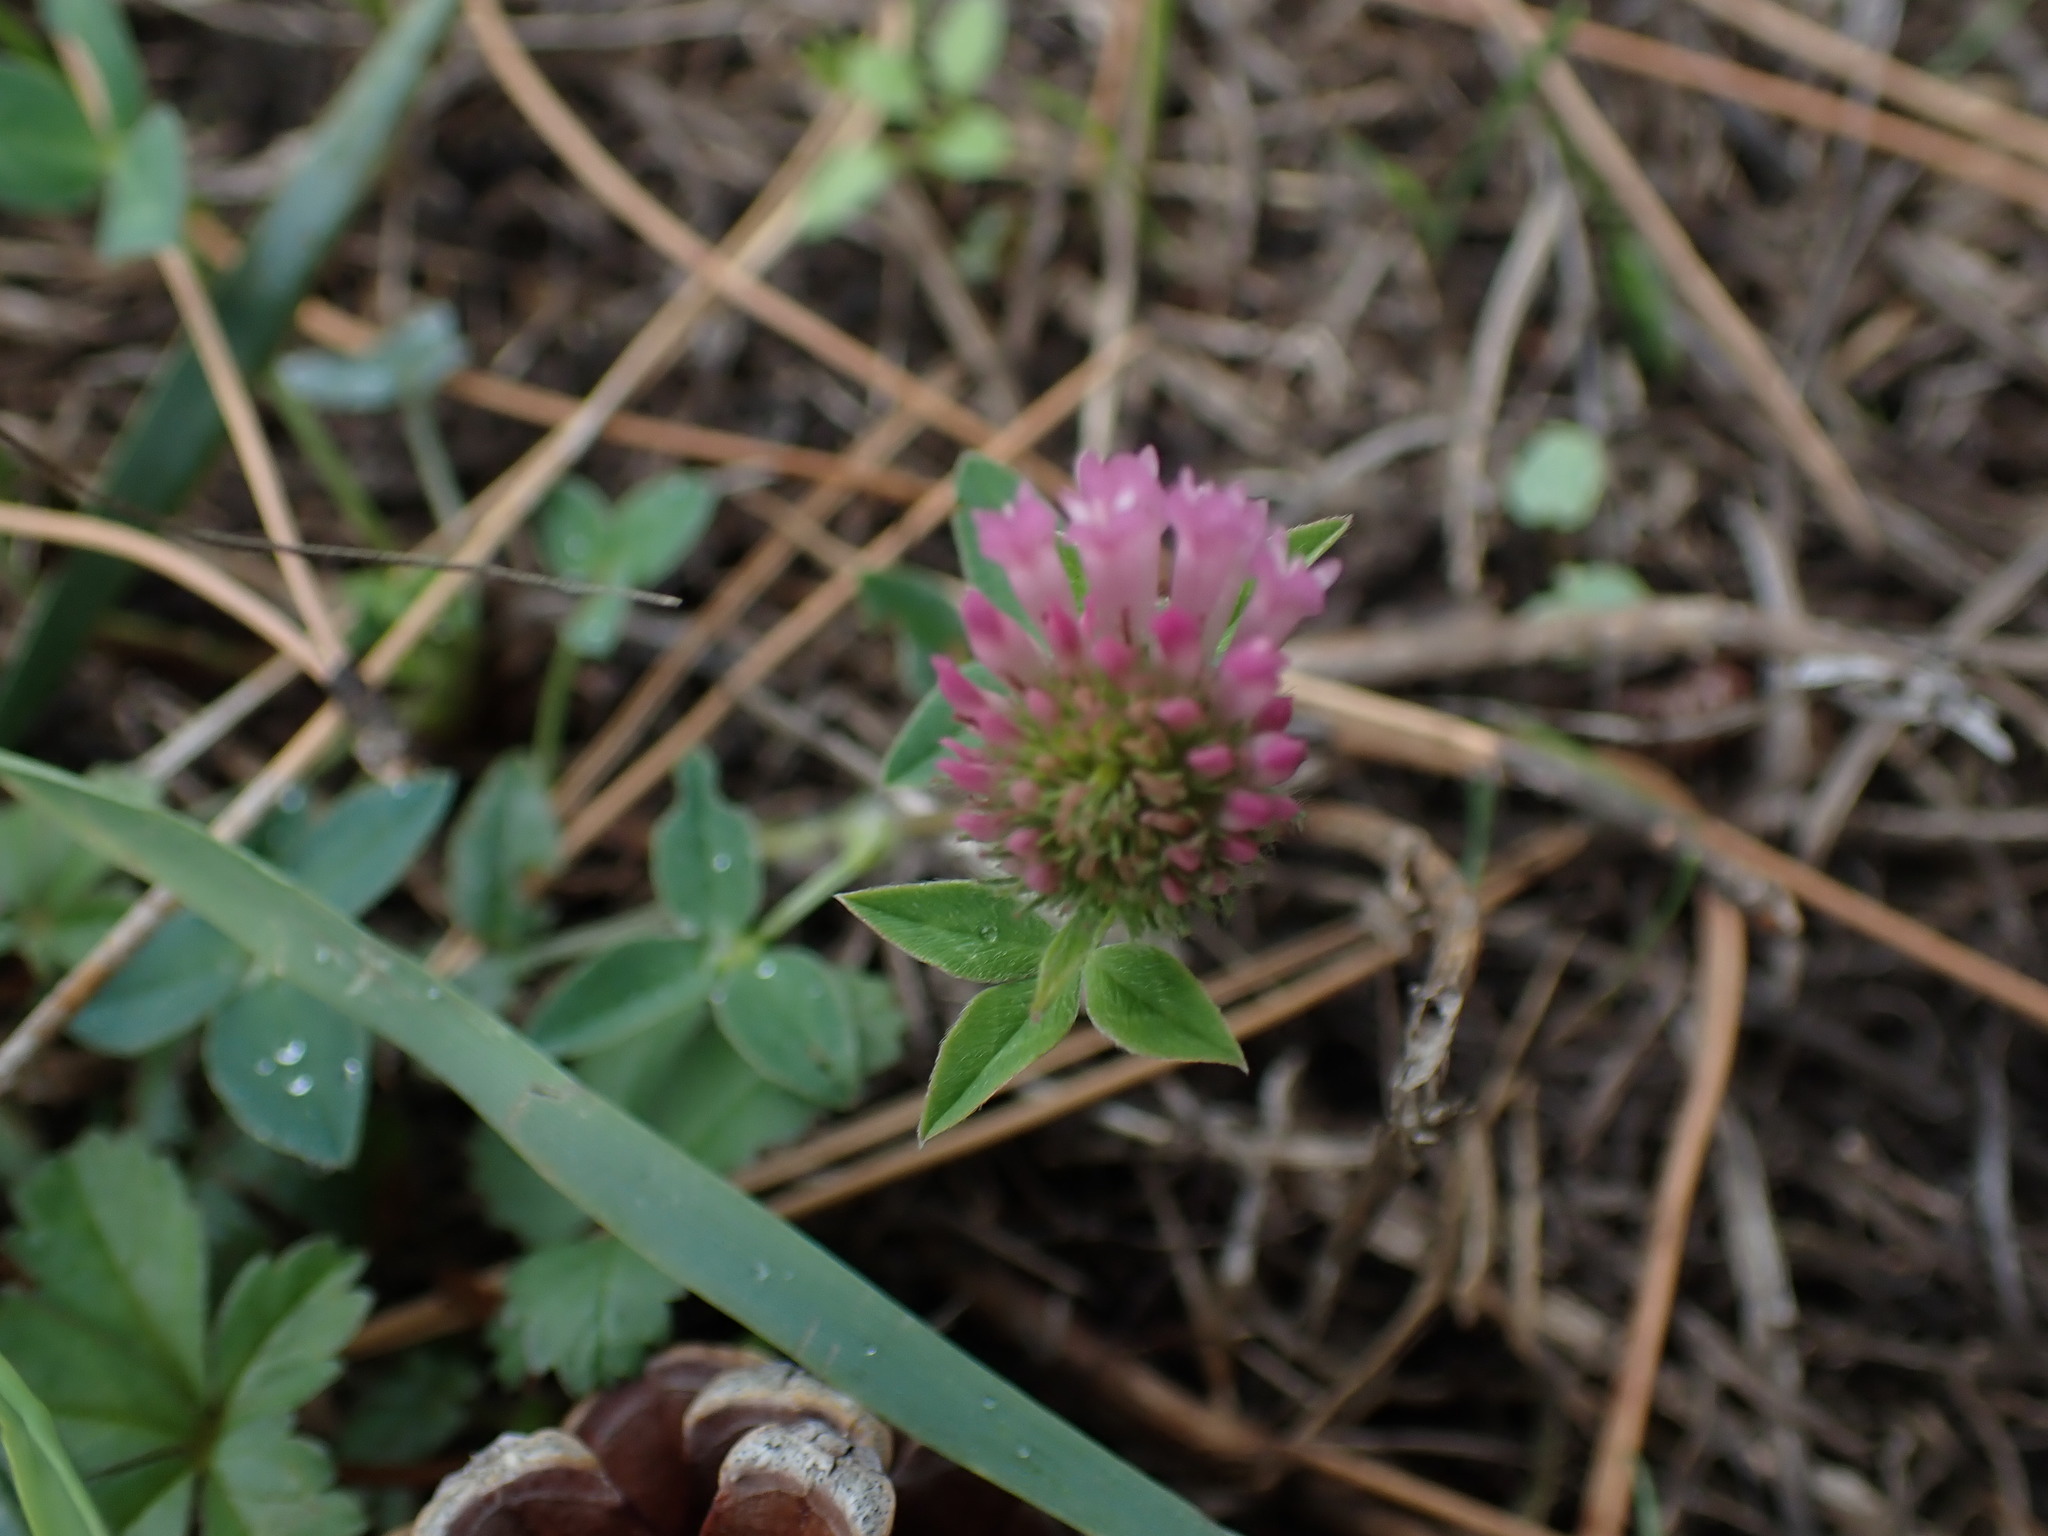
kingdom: Plantae
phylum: Tracheophyta
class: Magnoliopsida
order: Fabales
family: Fabaceae
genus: Trifolium
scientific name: Trifolium pratense
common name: Red clover
